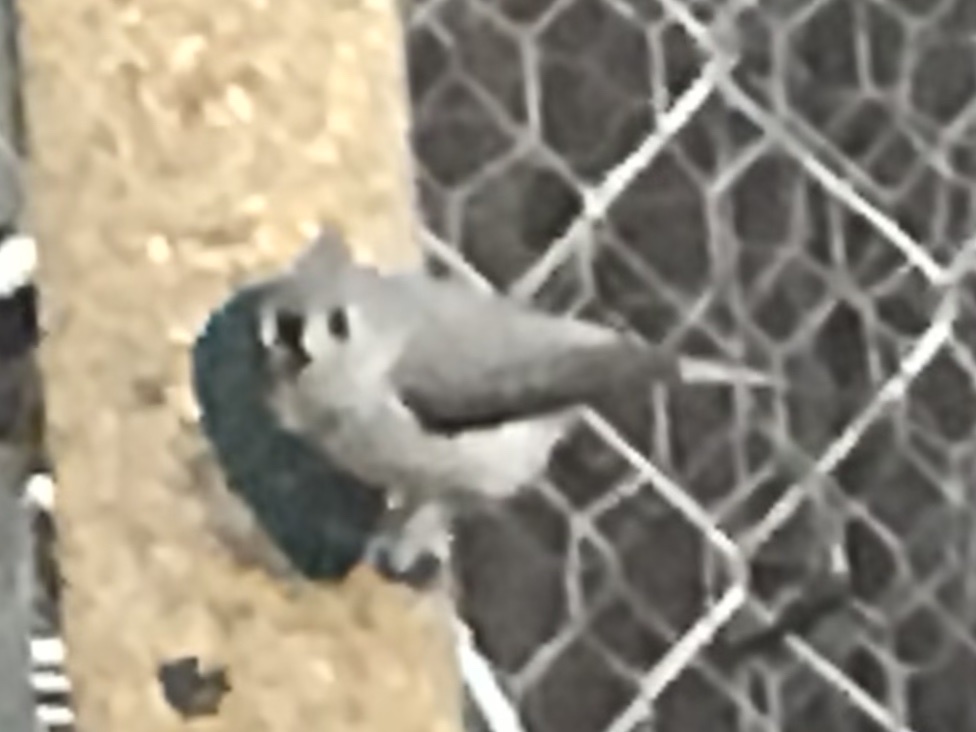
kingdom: Animalia
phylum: Chordata
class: Aves
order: Passeriformes
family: Paridae
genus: Baeolophus
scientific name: Baeolophus bicolor
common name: Tufted titmouse
